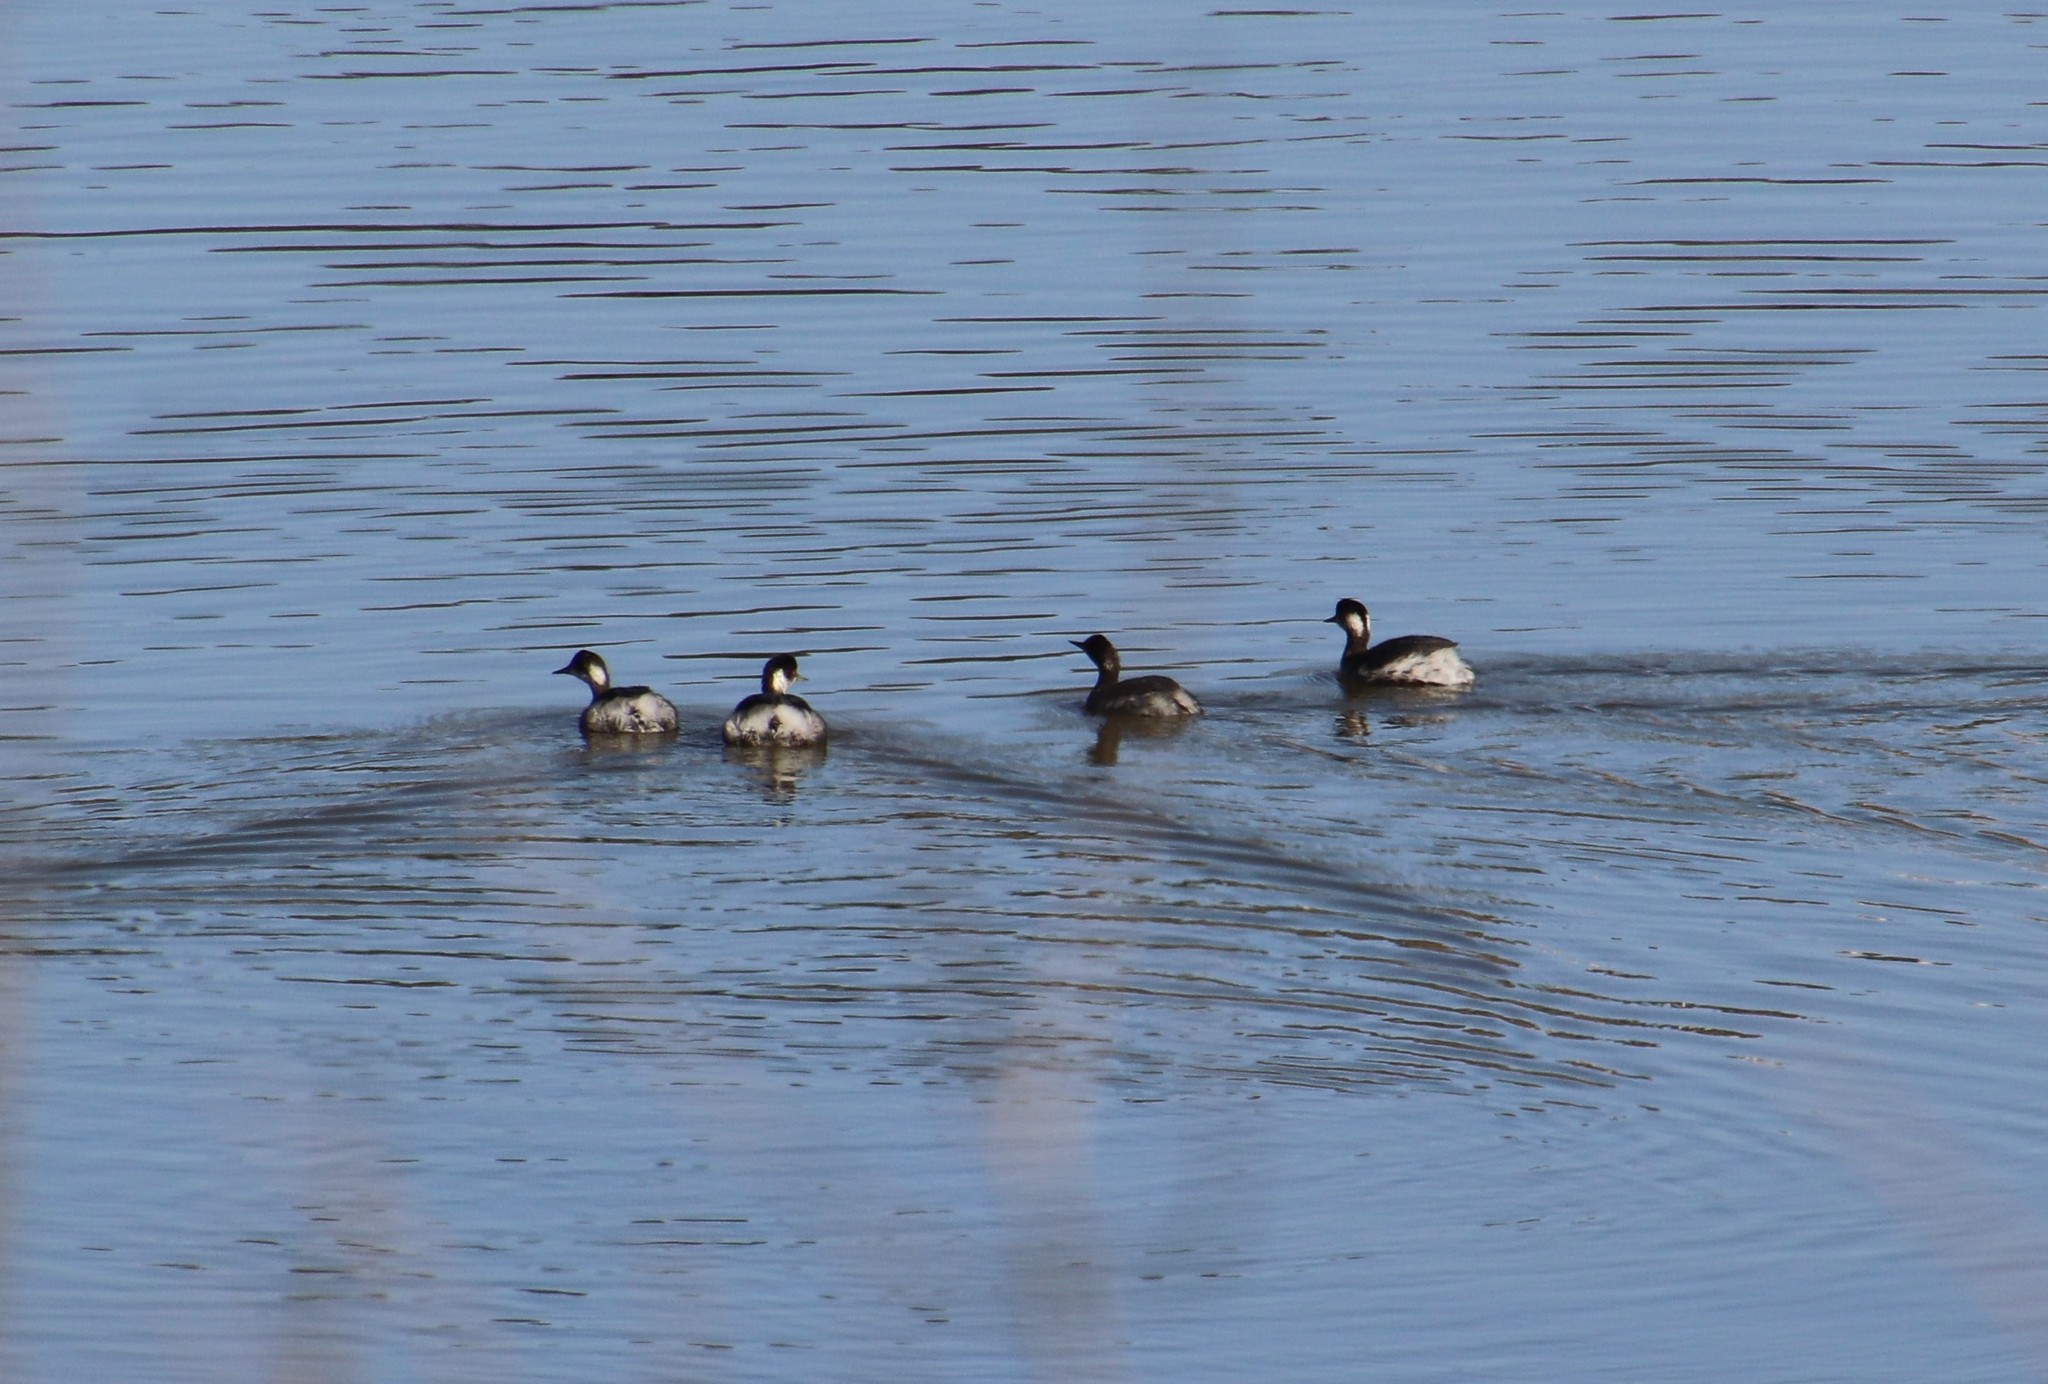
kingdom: Animalia
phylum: Chordata
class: Aves
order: Podicipediformes
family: Podicipedidae
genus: Podiceps
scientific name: Podiceps nigricollis
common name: Black-necked grebe
